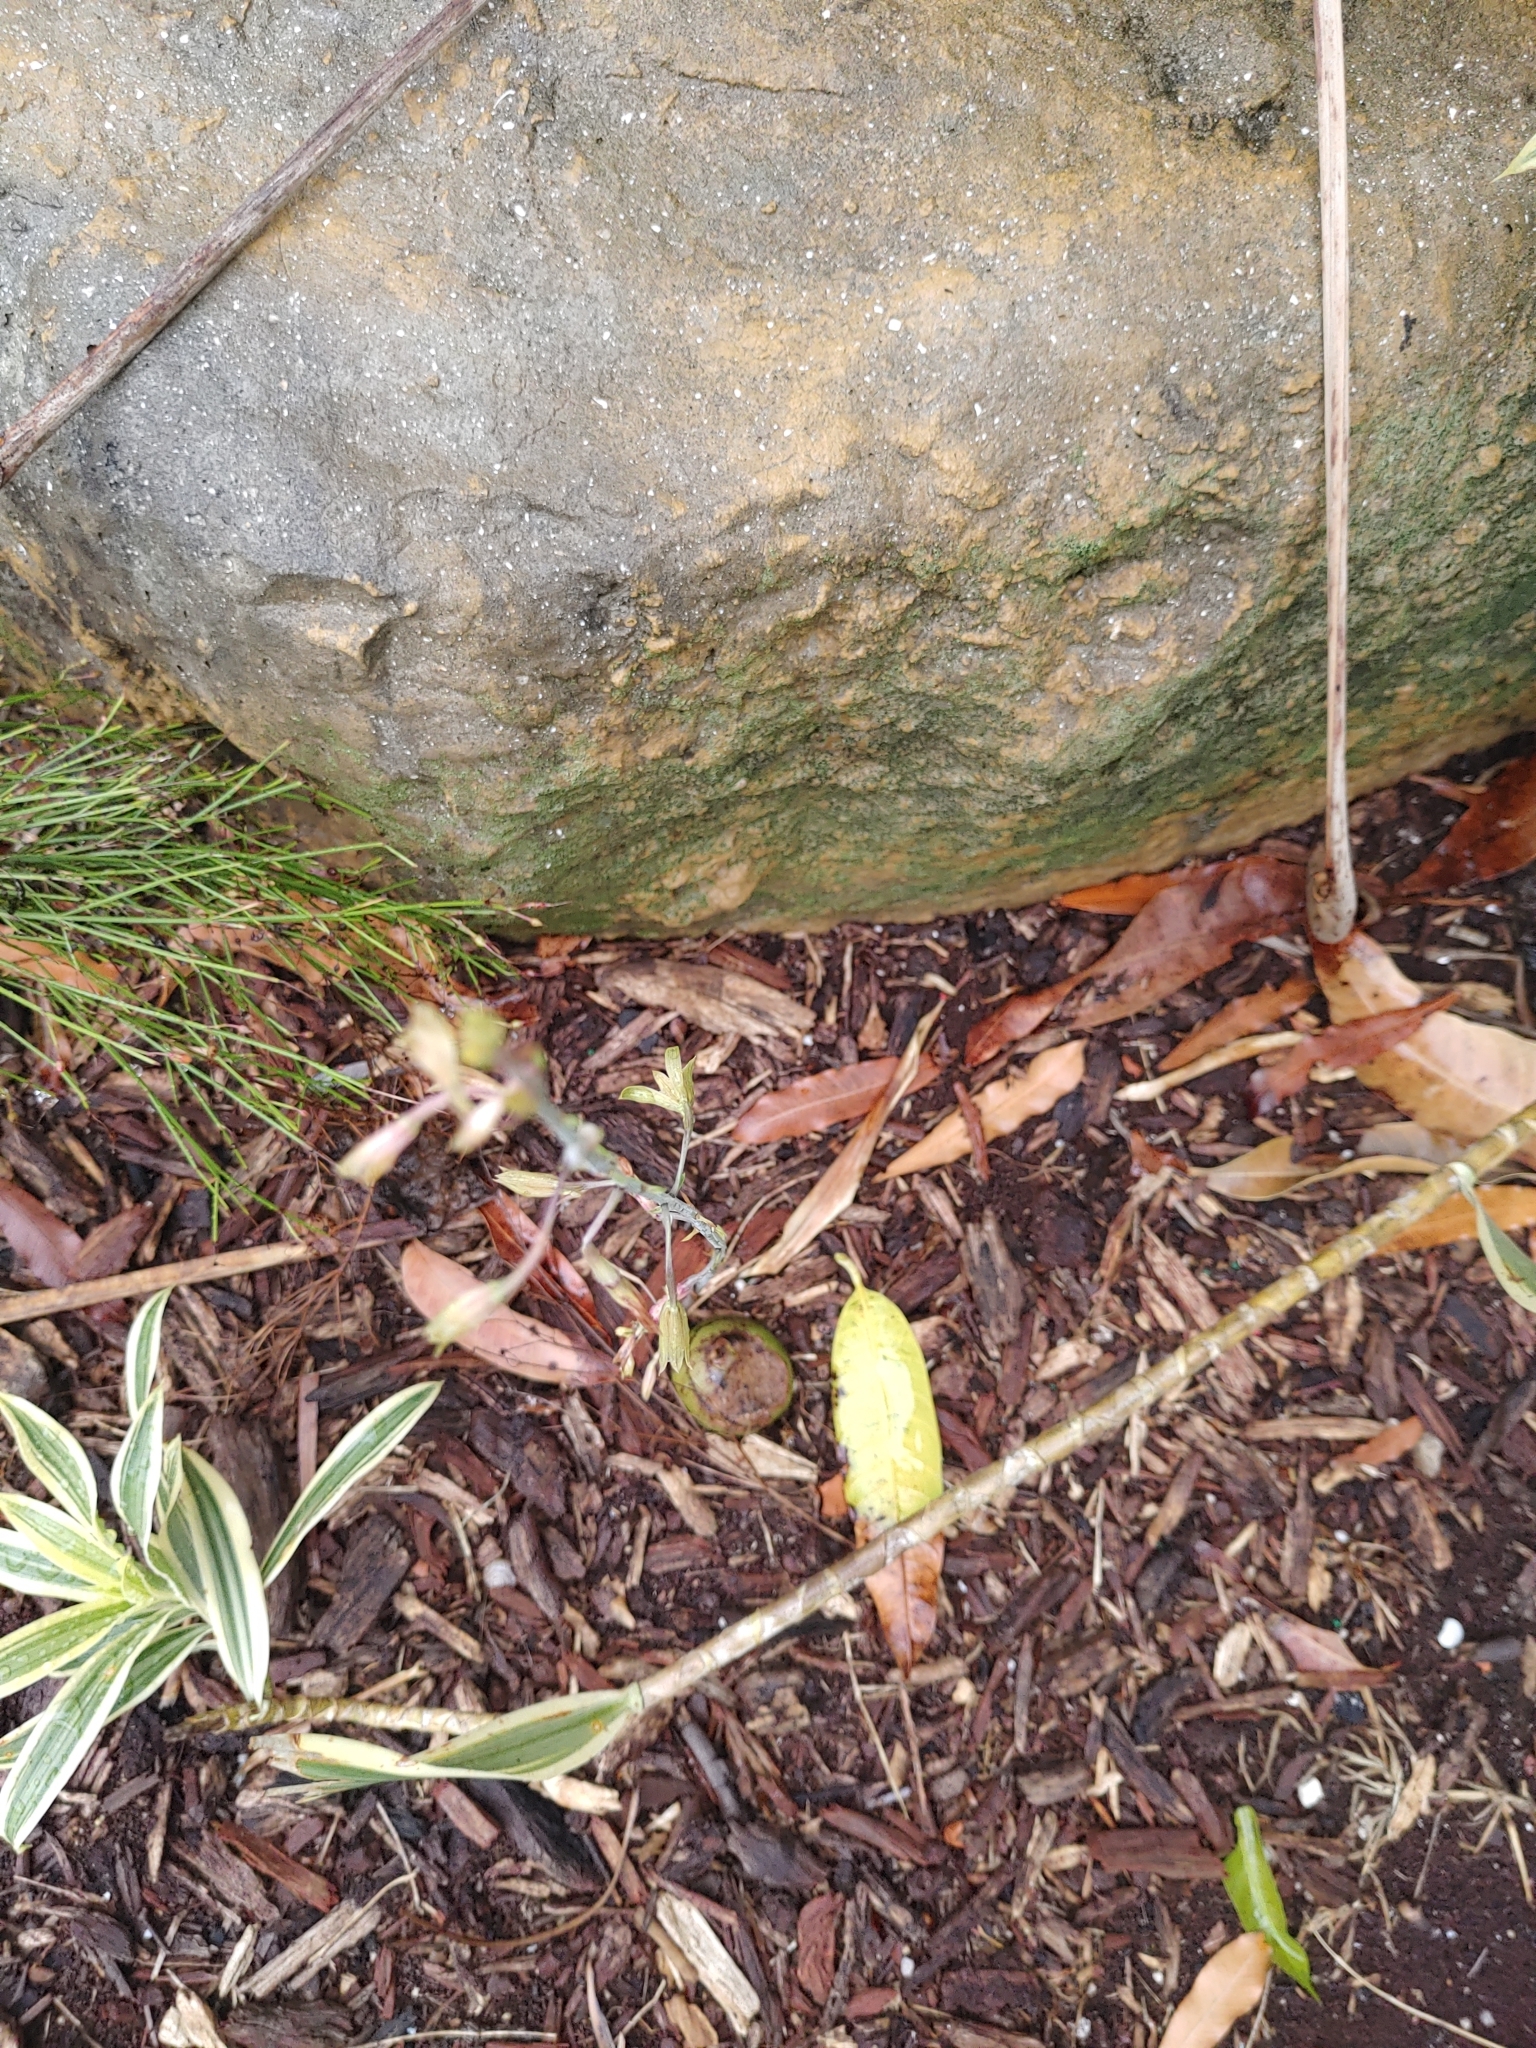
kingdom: Plantae
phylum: Tracheophyta
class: Liliopsida
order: Asparagales
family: Orchidaceae
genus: Eulophia
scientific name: Eulophia graminea
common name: Orchid
